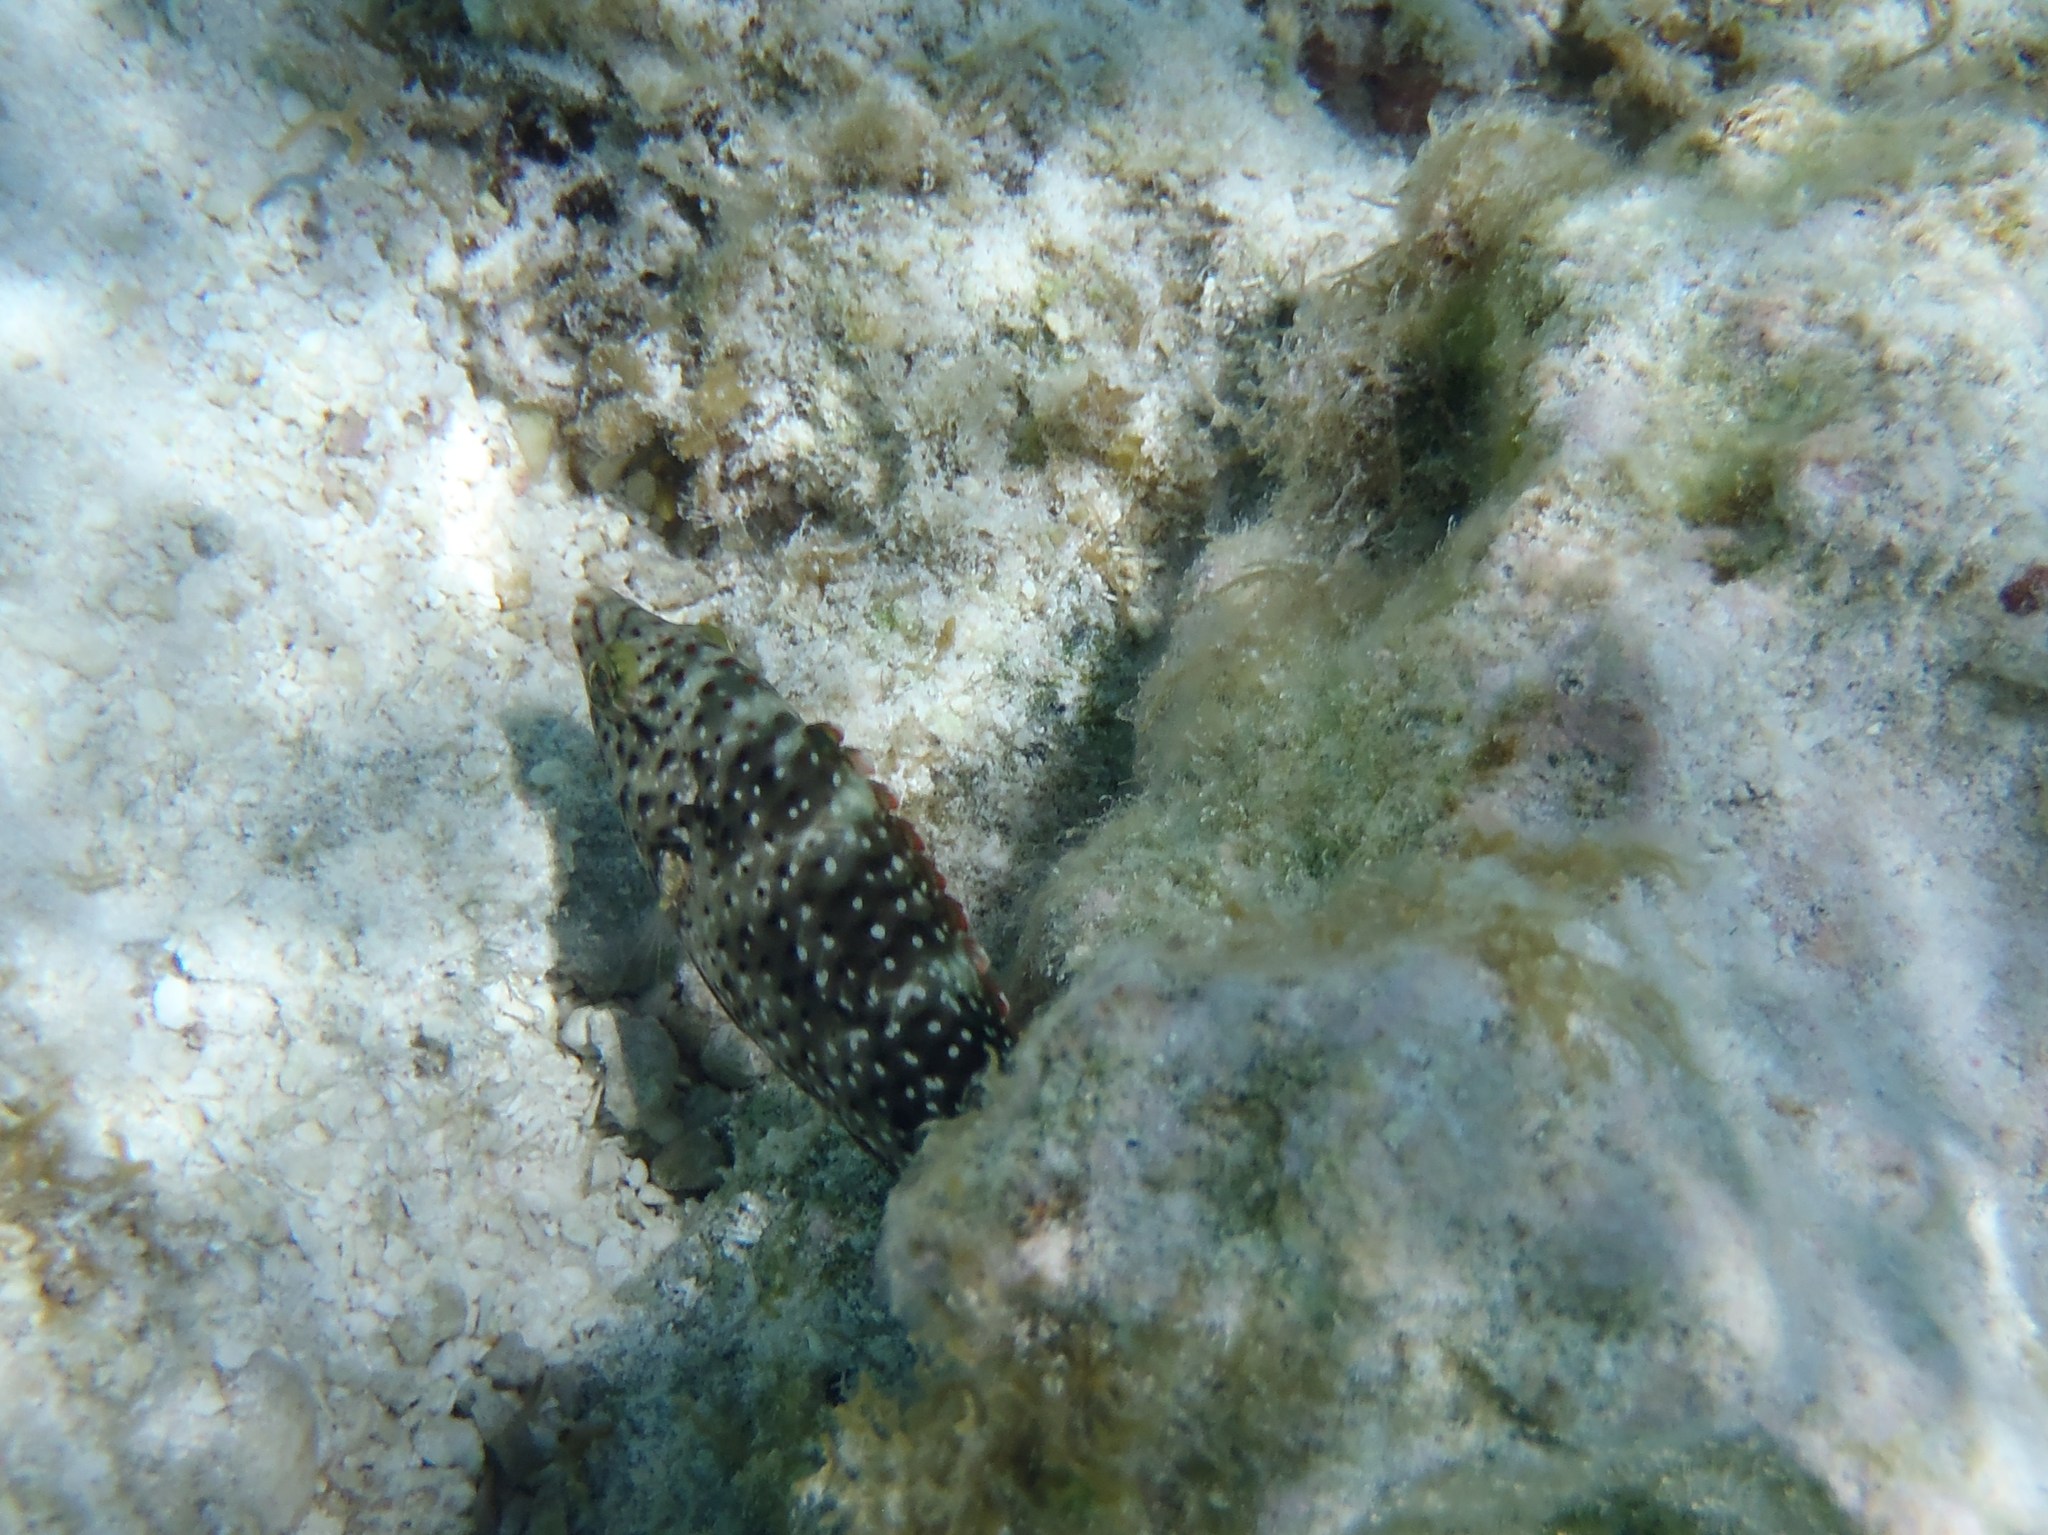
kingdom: Animalia
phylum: Chordata
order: Perciformes
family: Labridae
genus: Cheilinus
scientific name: Cheilinus chlorourus
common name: Floral wrasse
